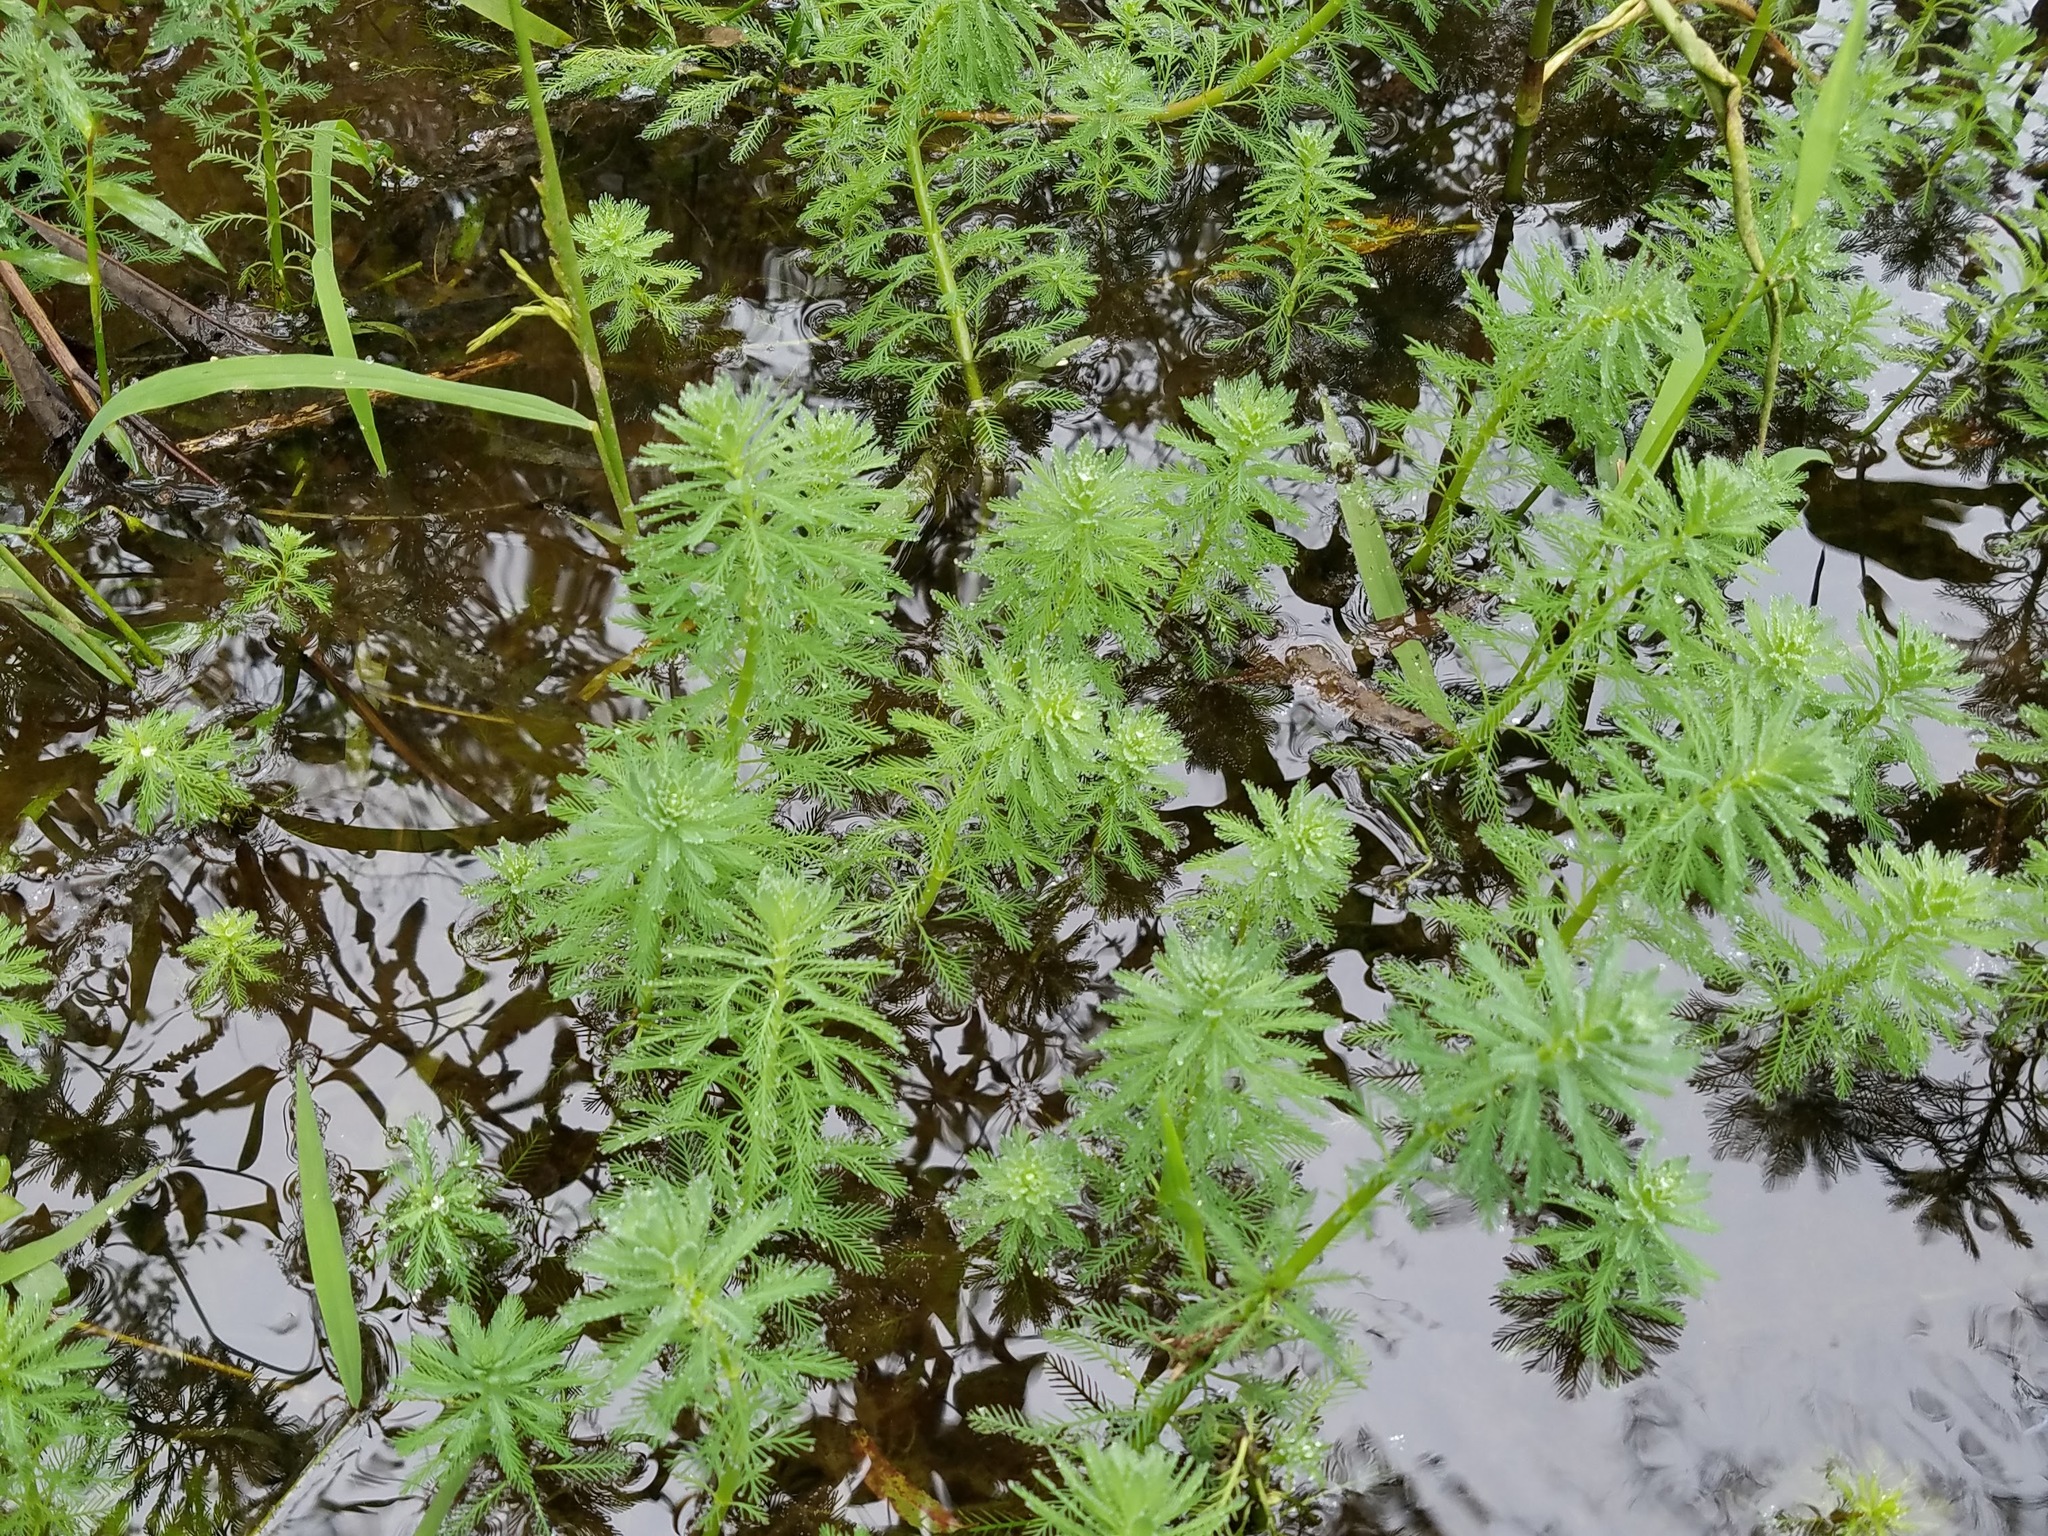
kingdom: Plantae
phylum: Tracheophyta
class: Magnoliopsida
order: Saxifragales
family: Haloragaceae
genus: Myriophyllum
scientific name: Myriophyllum aquaticum
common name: Parrot's feather
